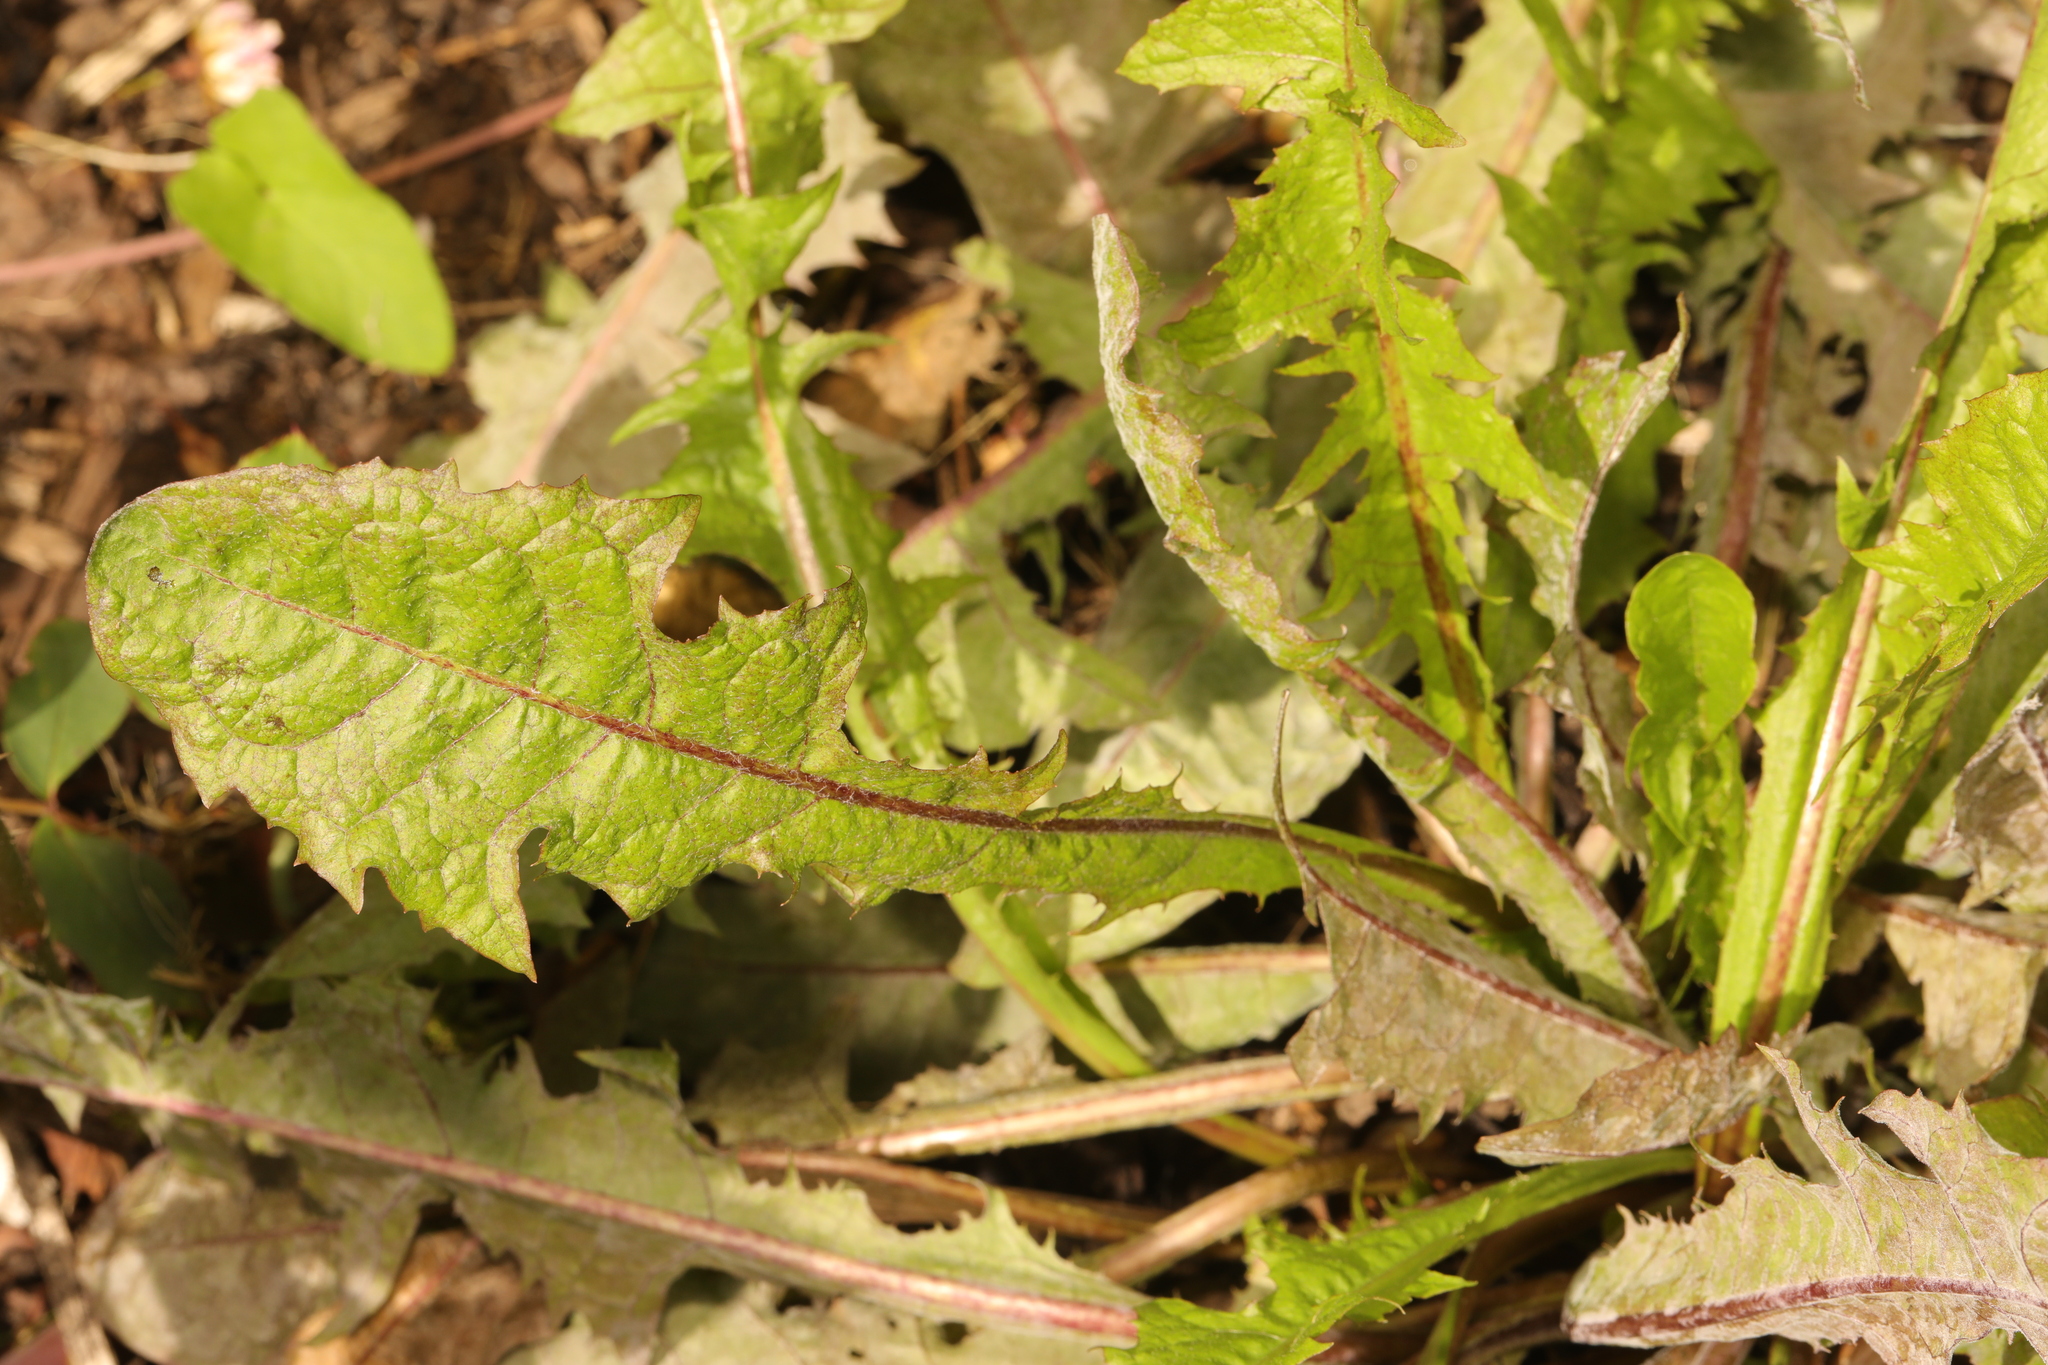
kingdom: Plantae
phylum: Tracheophyta
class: Magnoliopsida
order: Asterales
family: Asteraceae
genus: Taraxacum
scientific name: Taraxacum officinale
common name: Common dandelion
